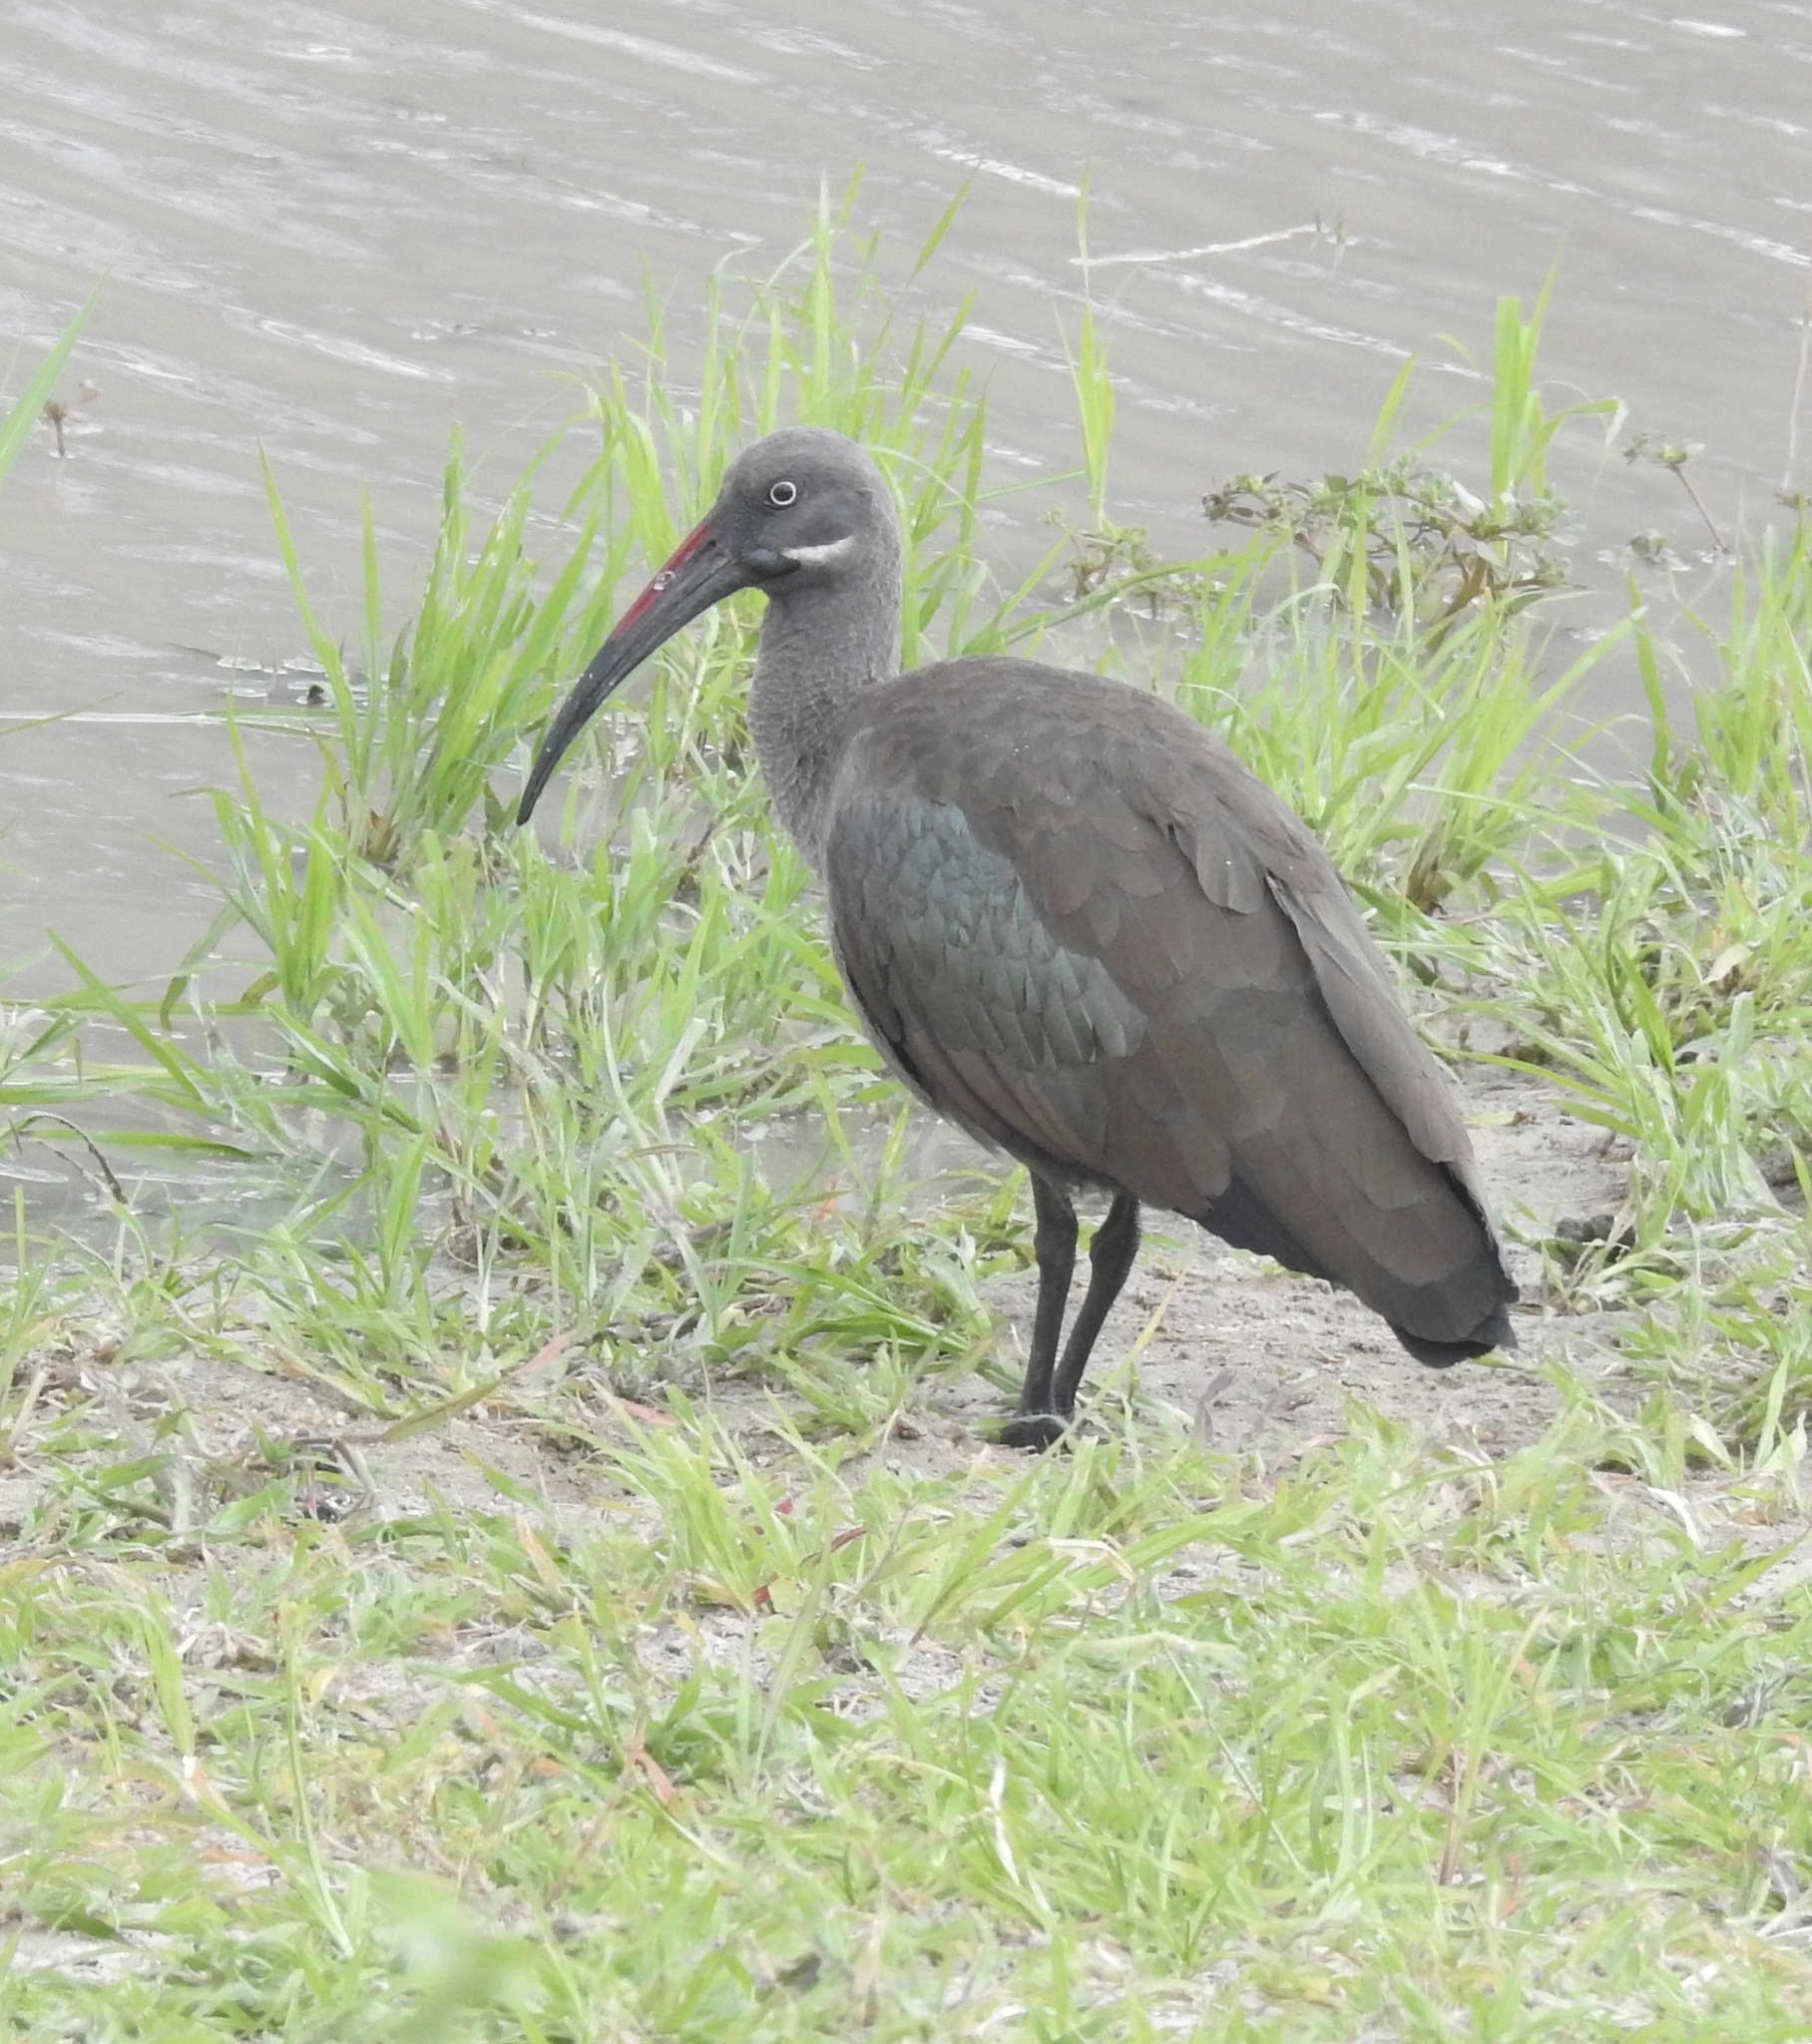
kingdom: Animalia
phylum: Chordata
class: Aves
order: Pelecaniformes
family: Threskiornithidae
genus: Bostrychia
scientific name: Bostrychia hagedash
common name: Hadada ibis
